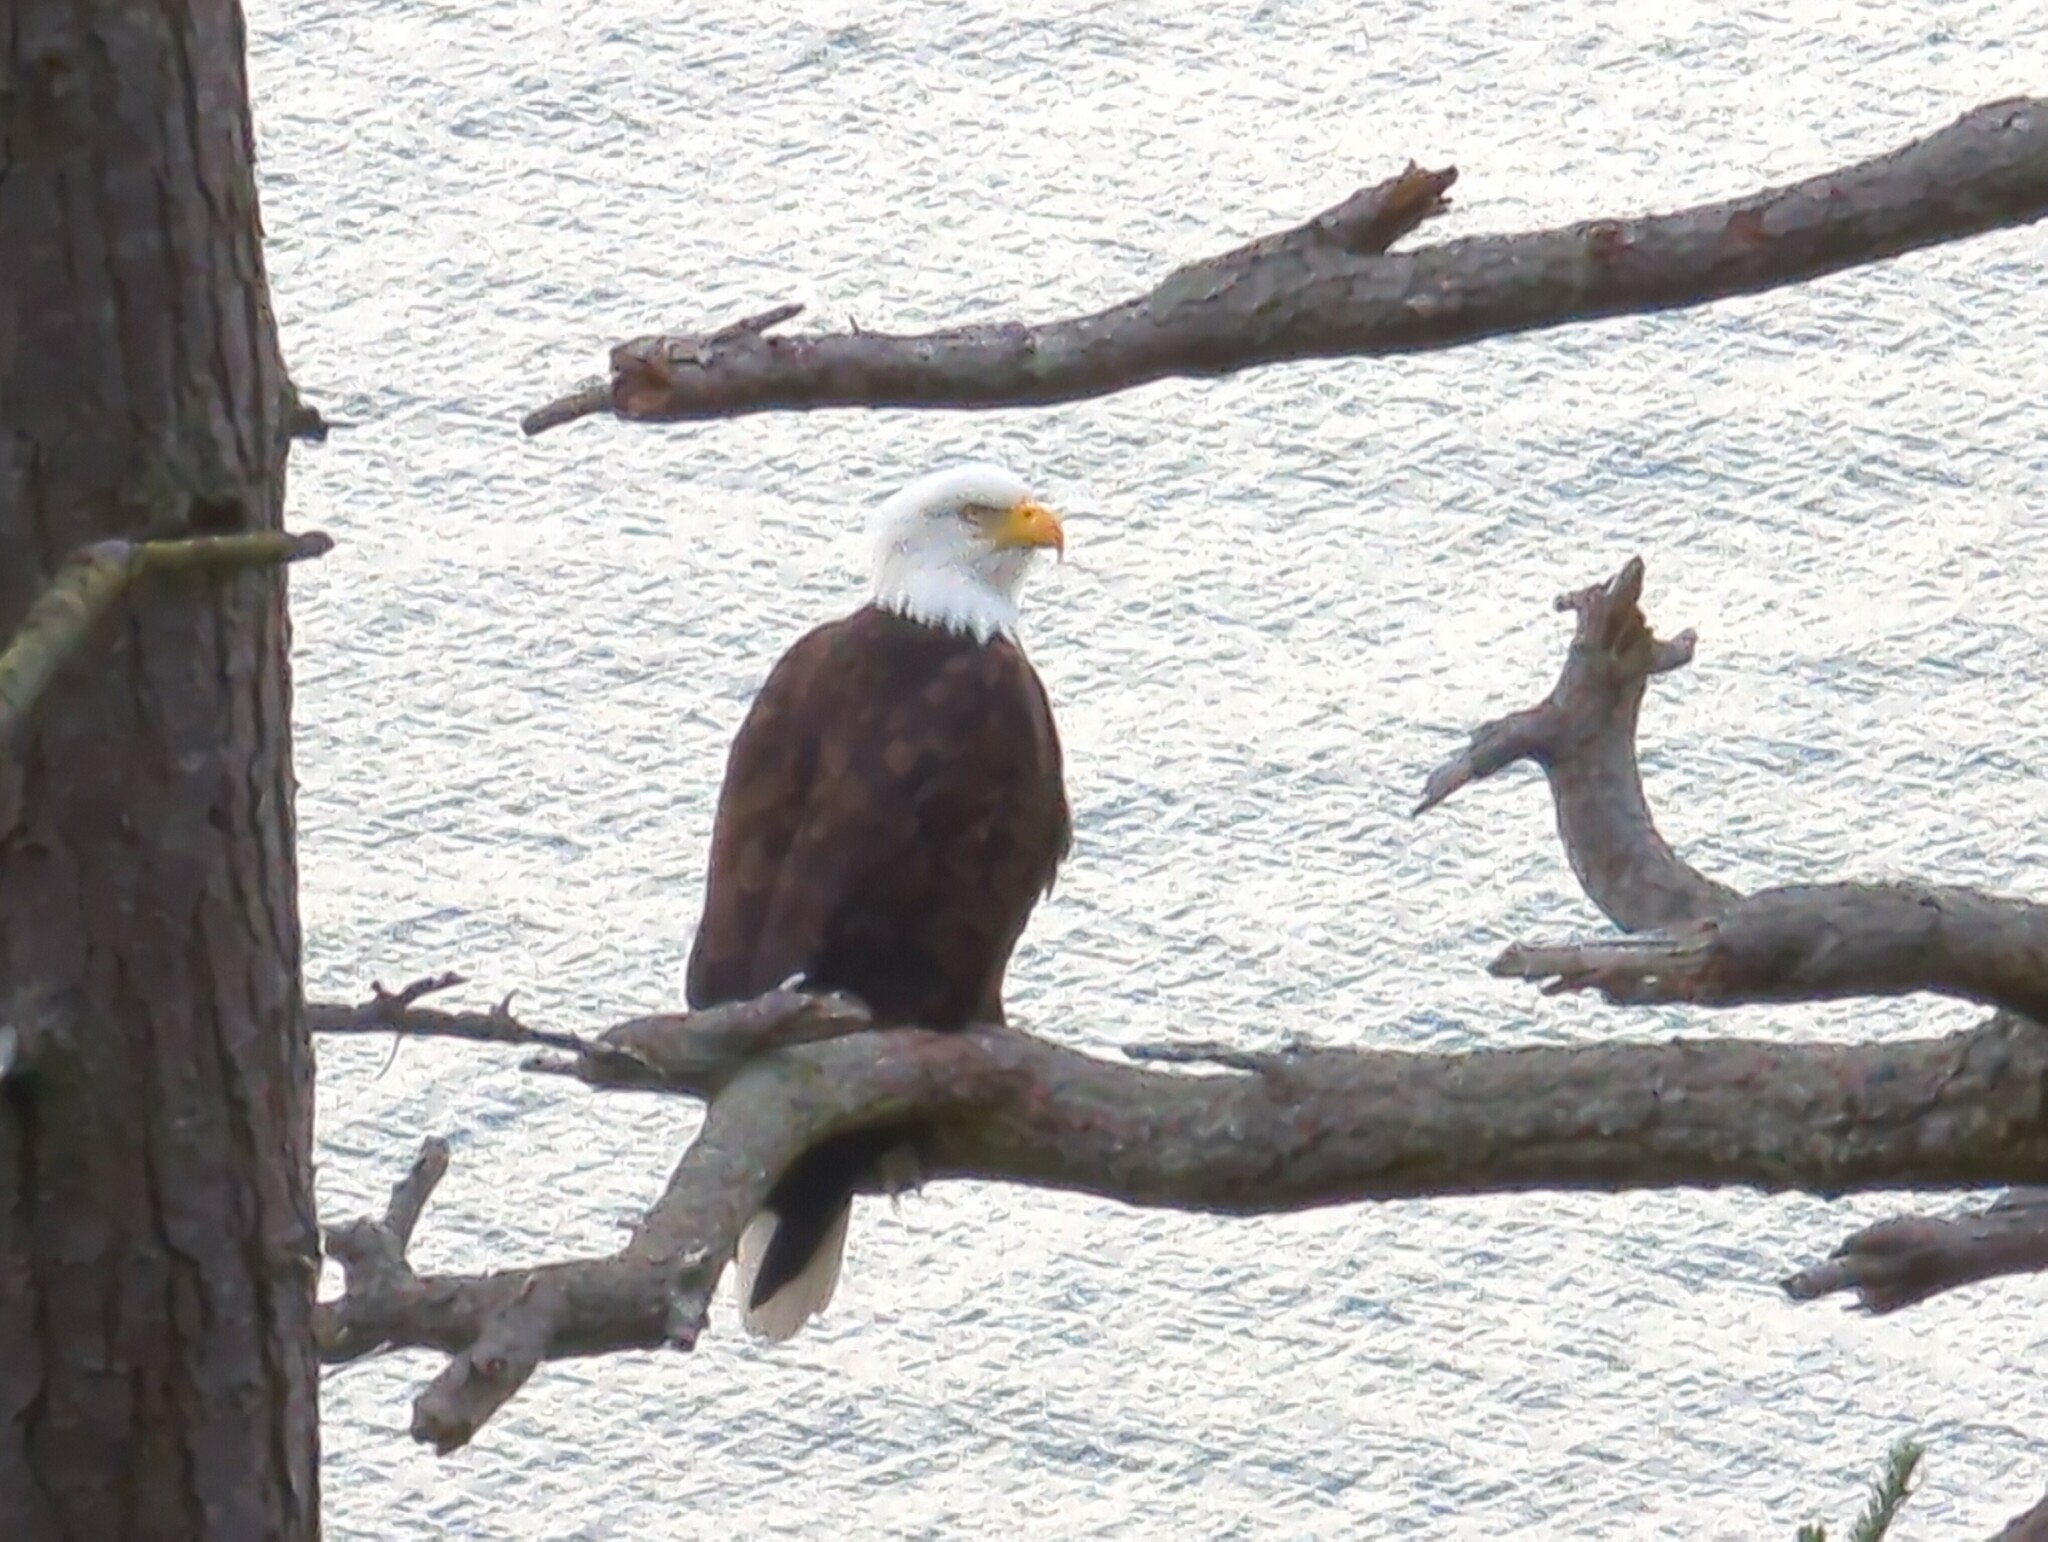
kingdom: Animalia
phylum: Chordata
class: Aves
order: Accipitriformes
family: Accipitridae
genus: Haliaeetus
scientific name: Haliaeetus leucocephalus
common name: Bald eagle
